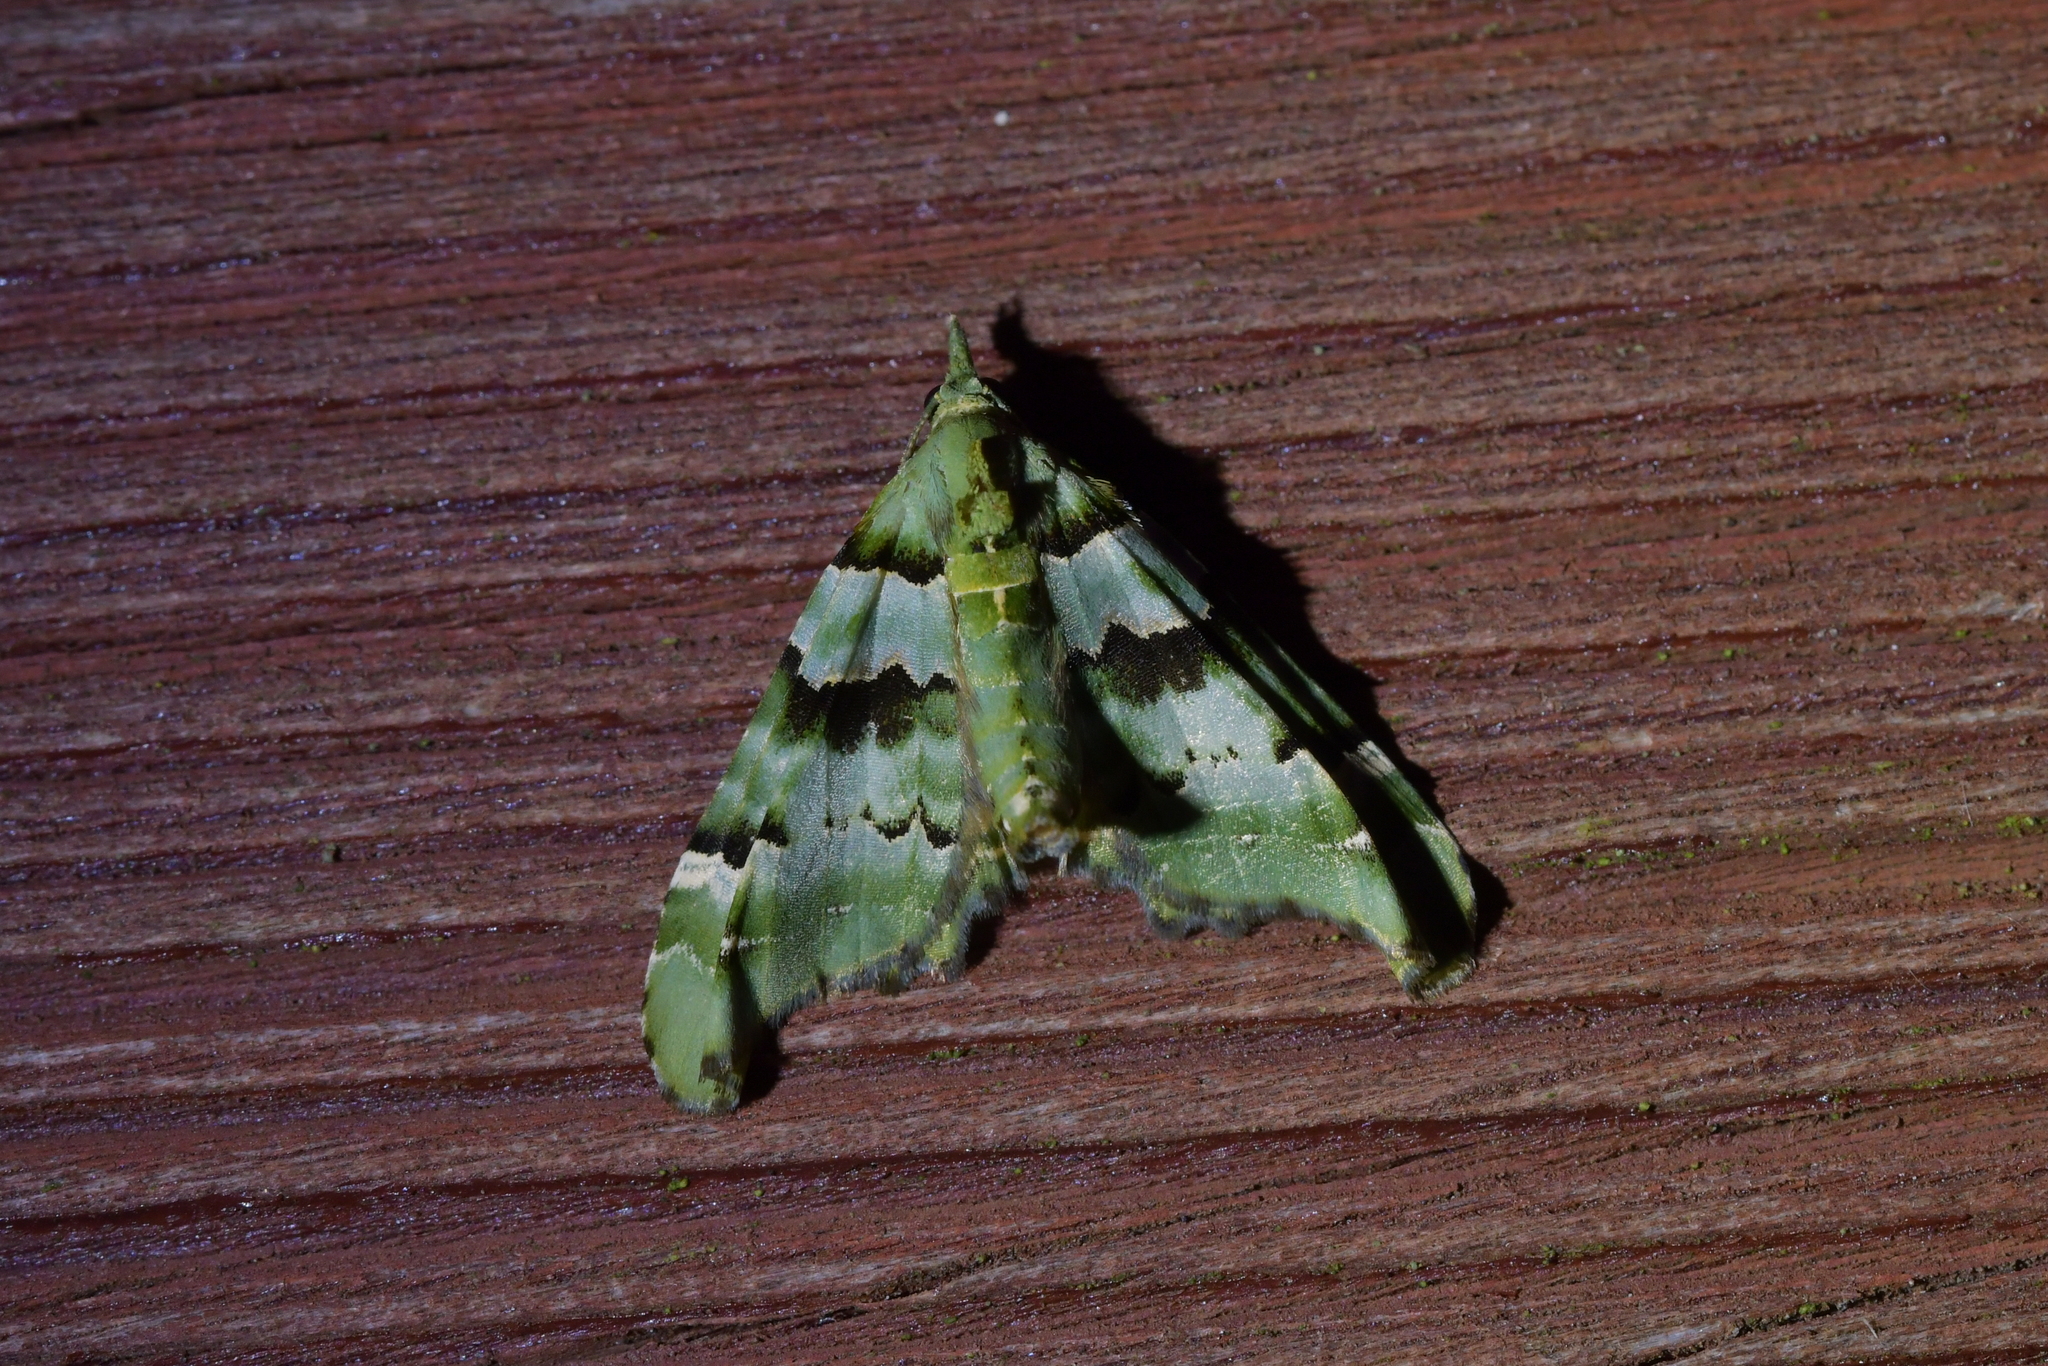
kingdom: Animalia
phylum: Arthropoda
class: Insecta
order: Lepidoptera
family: Geometridae
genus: Elvia
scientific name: Elvia glaucata
